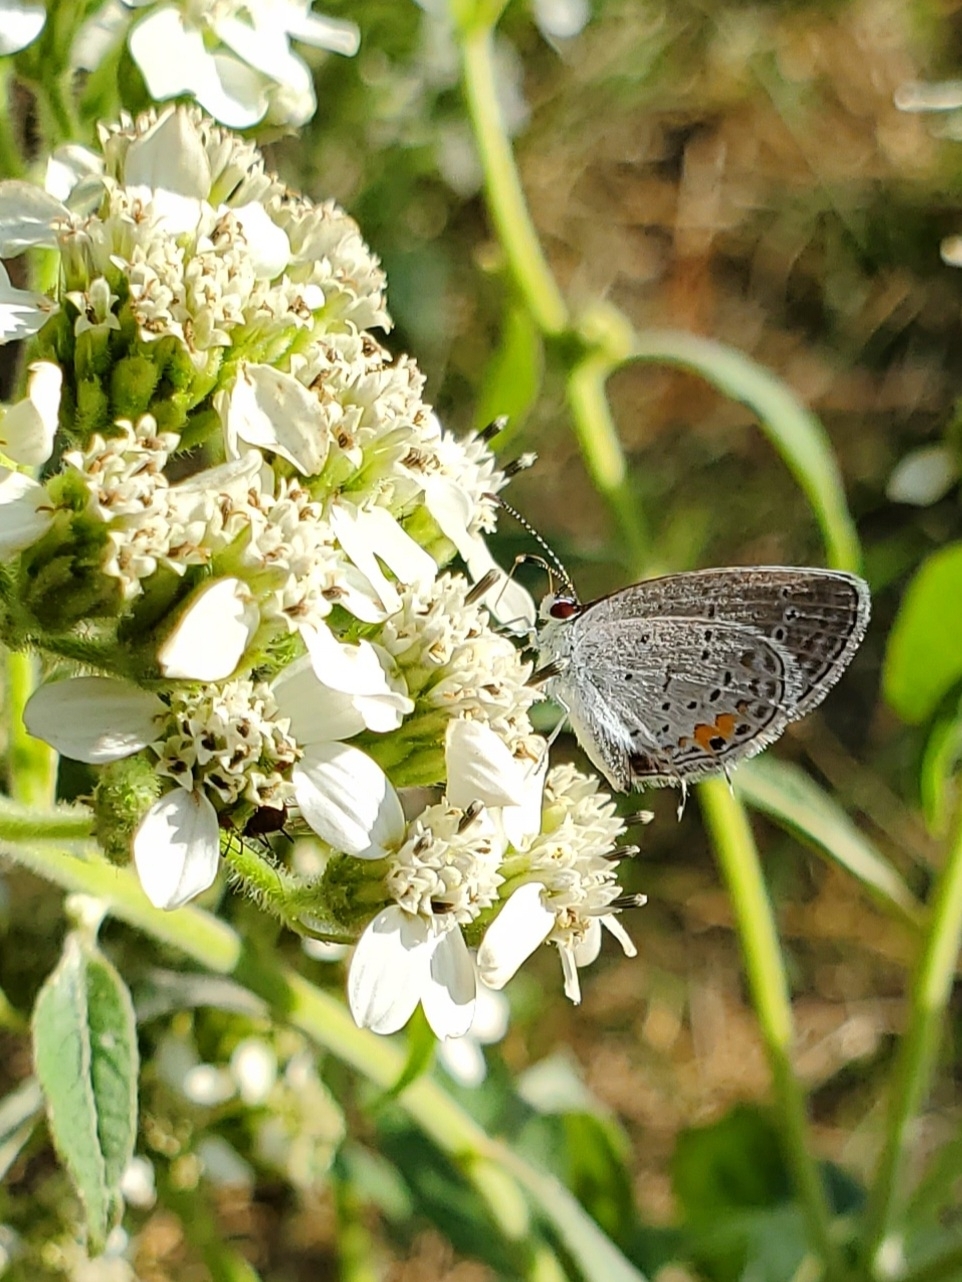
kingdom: Animalia
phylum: Arthropoda
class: Insecta
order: Lepidoptera
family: Lycaenidae
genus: Elkalyce
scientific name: Elkalyce comyntas
